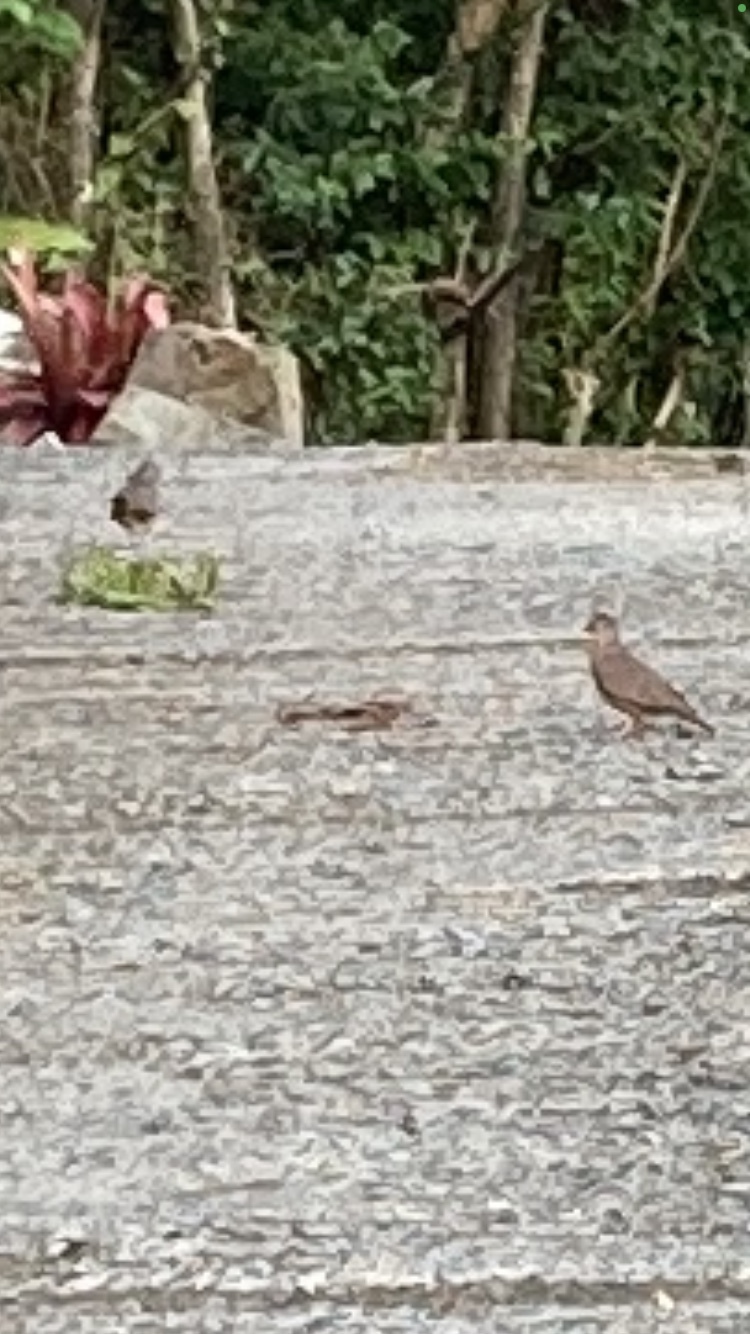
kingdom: Animalia
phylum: Chordata
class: Aves
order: Columbiformes
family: Columbidae
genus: Columbina
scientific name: Columbina passerina
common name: Common ground-dove
